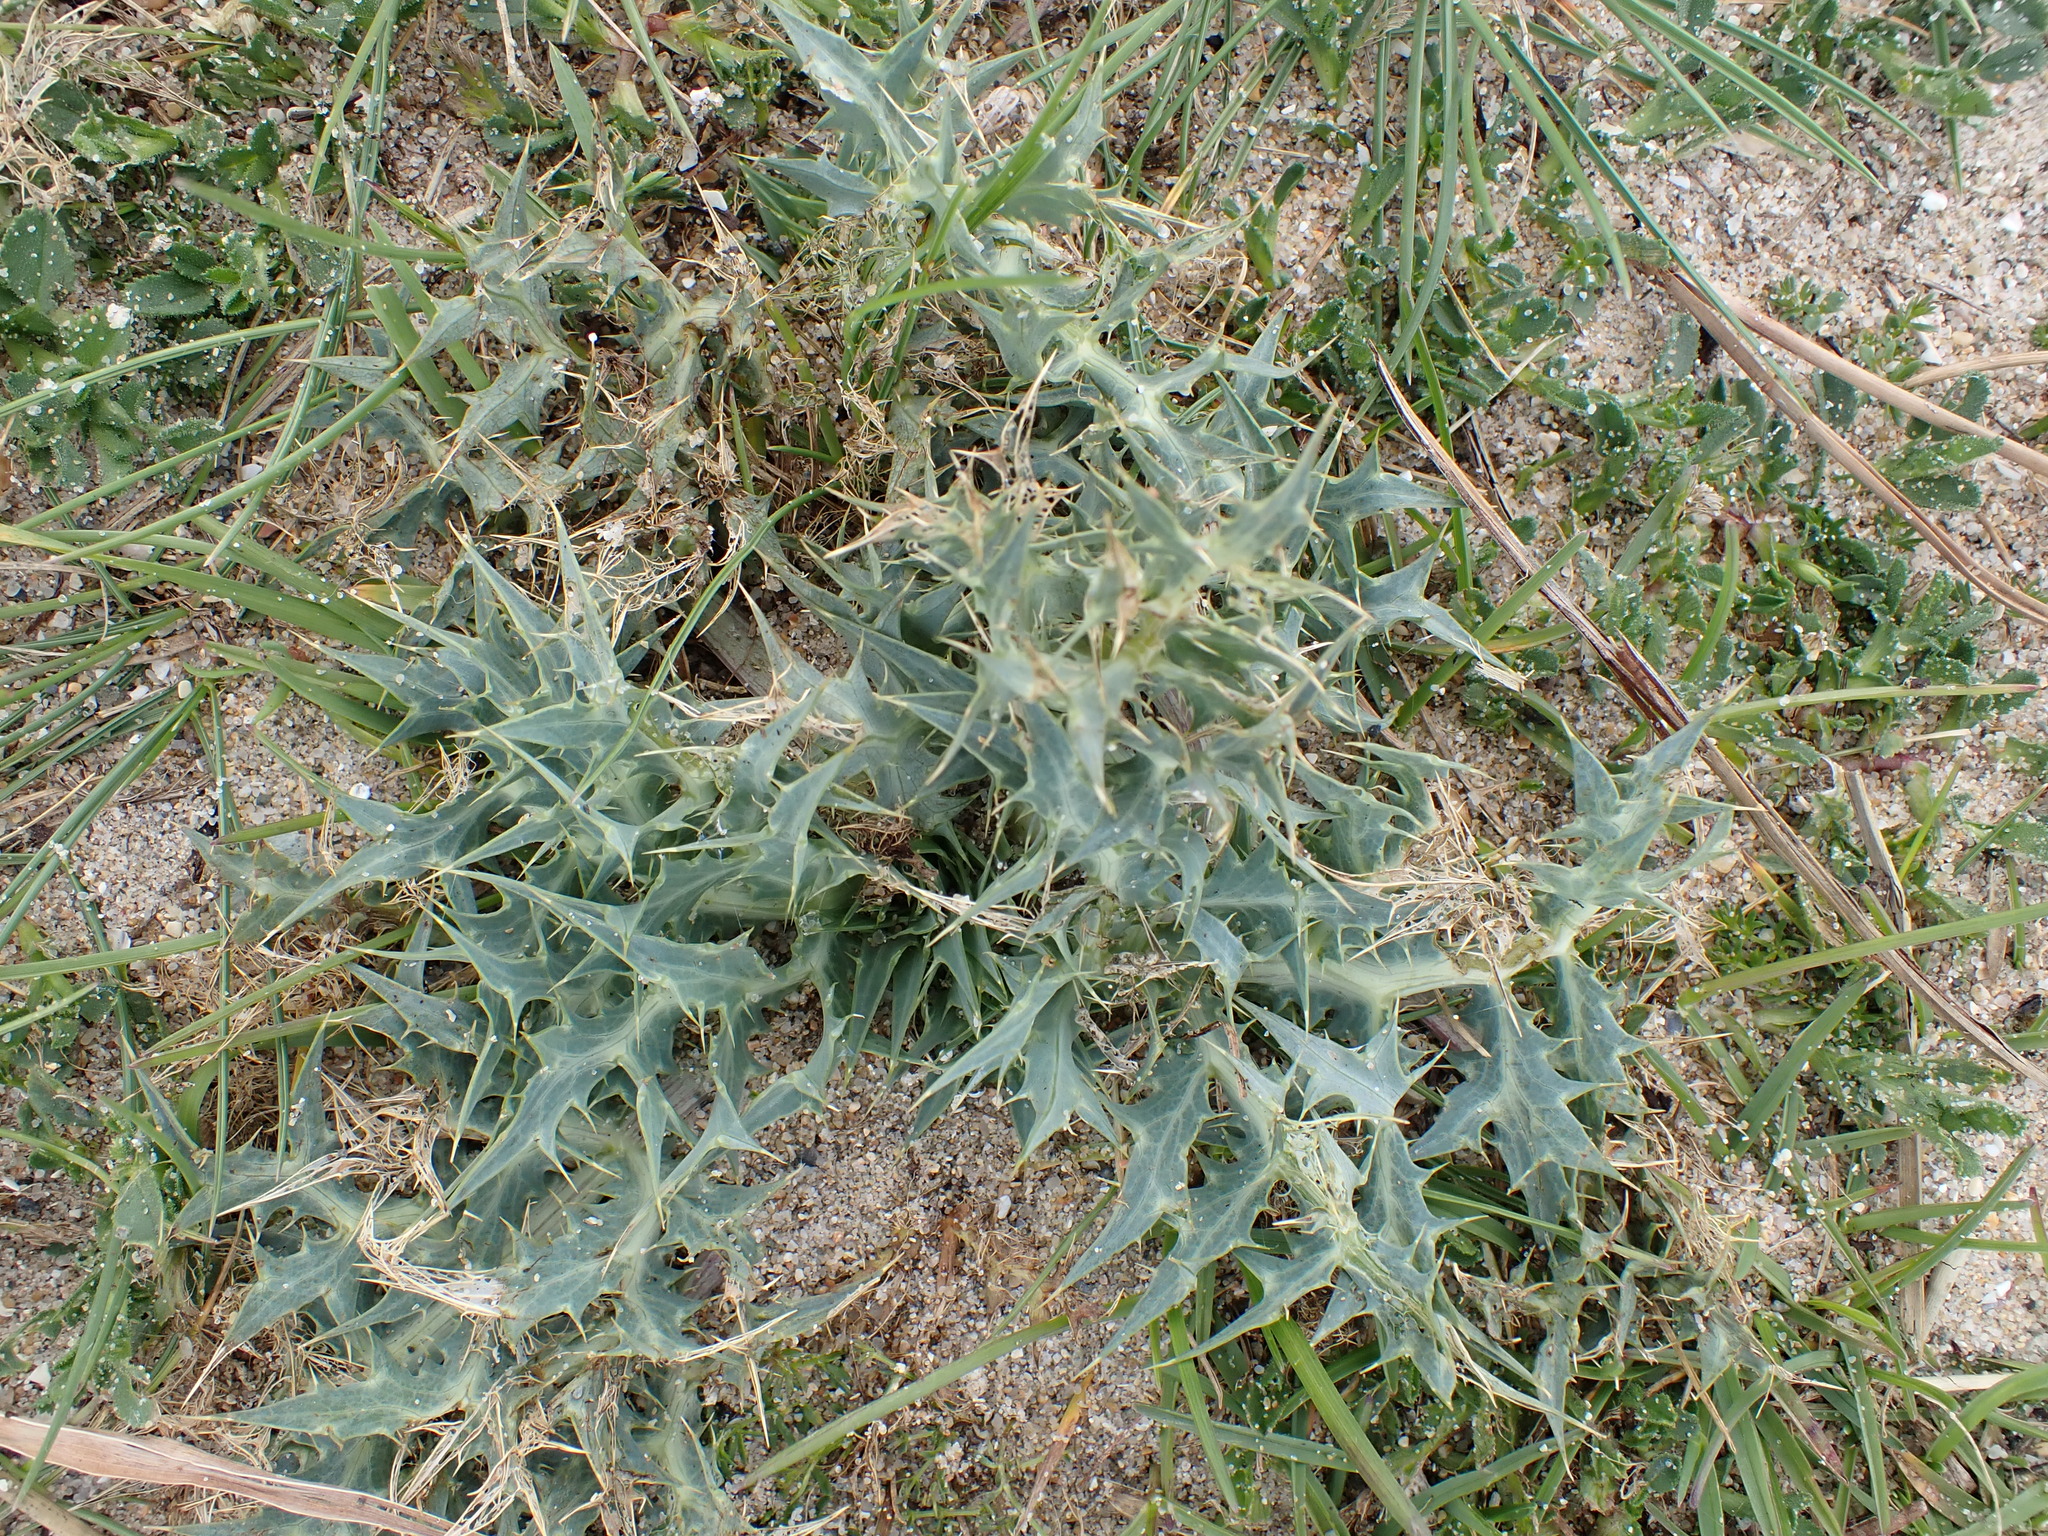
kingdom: Plantae
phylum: Tracheophyta
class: Magnoliopsida
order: Apiales
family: Apiaceae
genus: Eryngium
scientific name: Eryngium campestre
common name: Field eryngo
